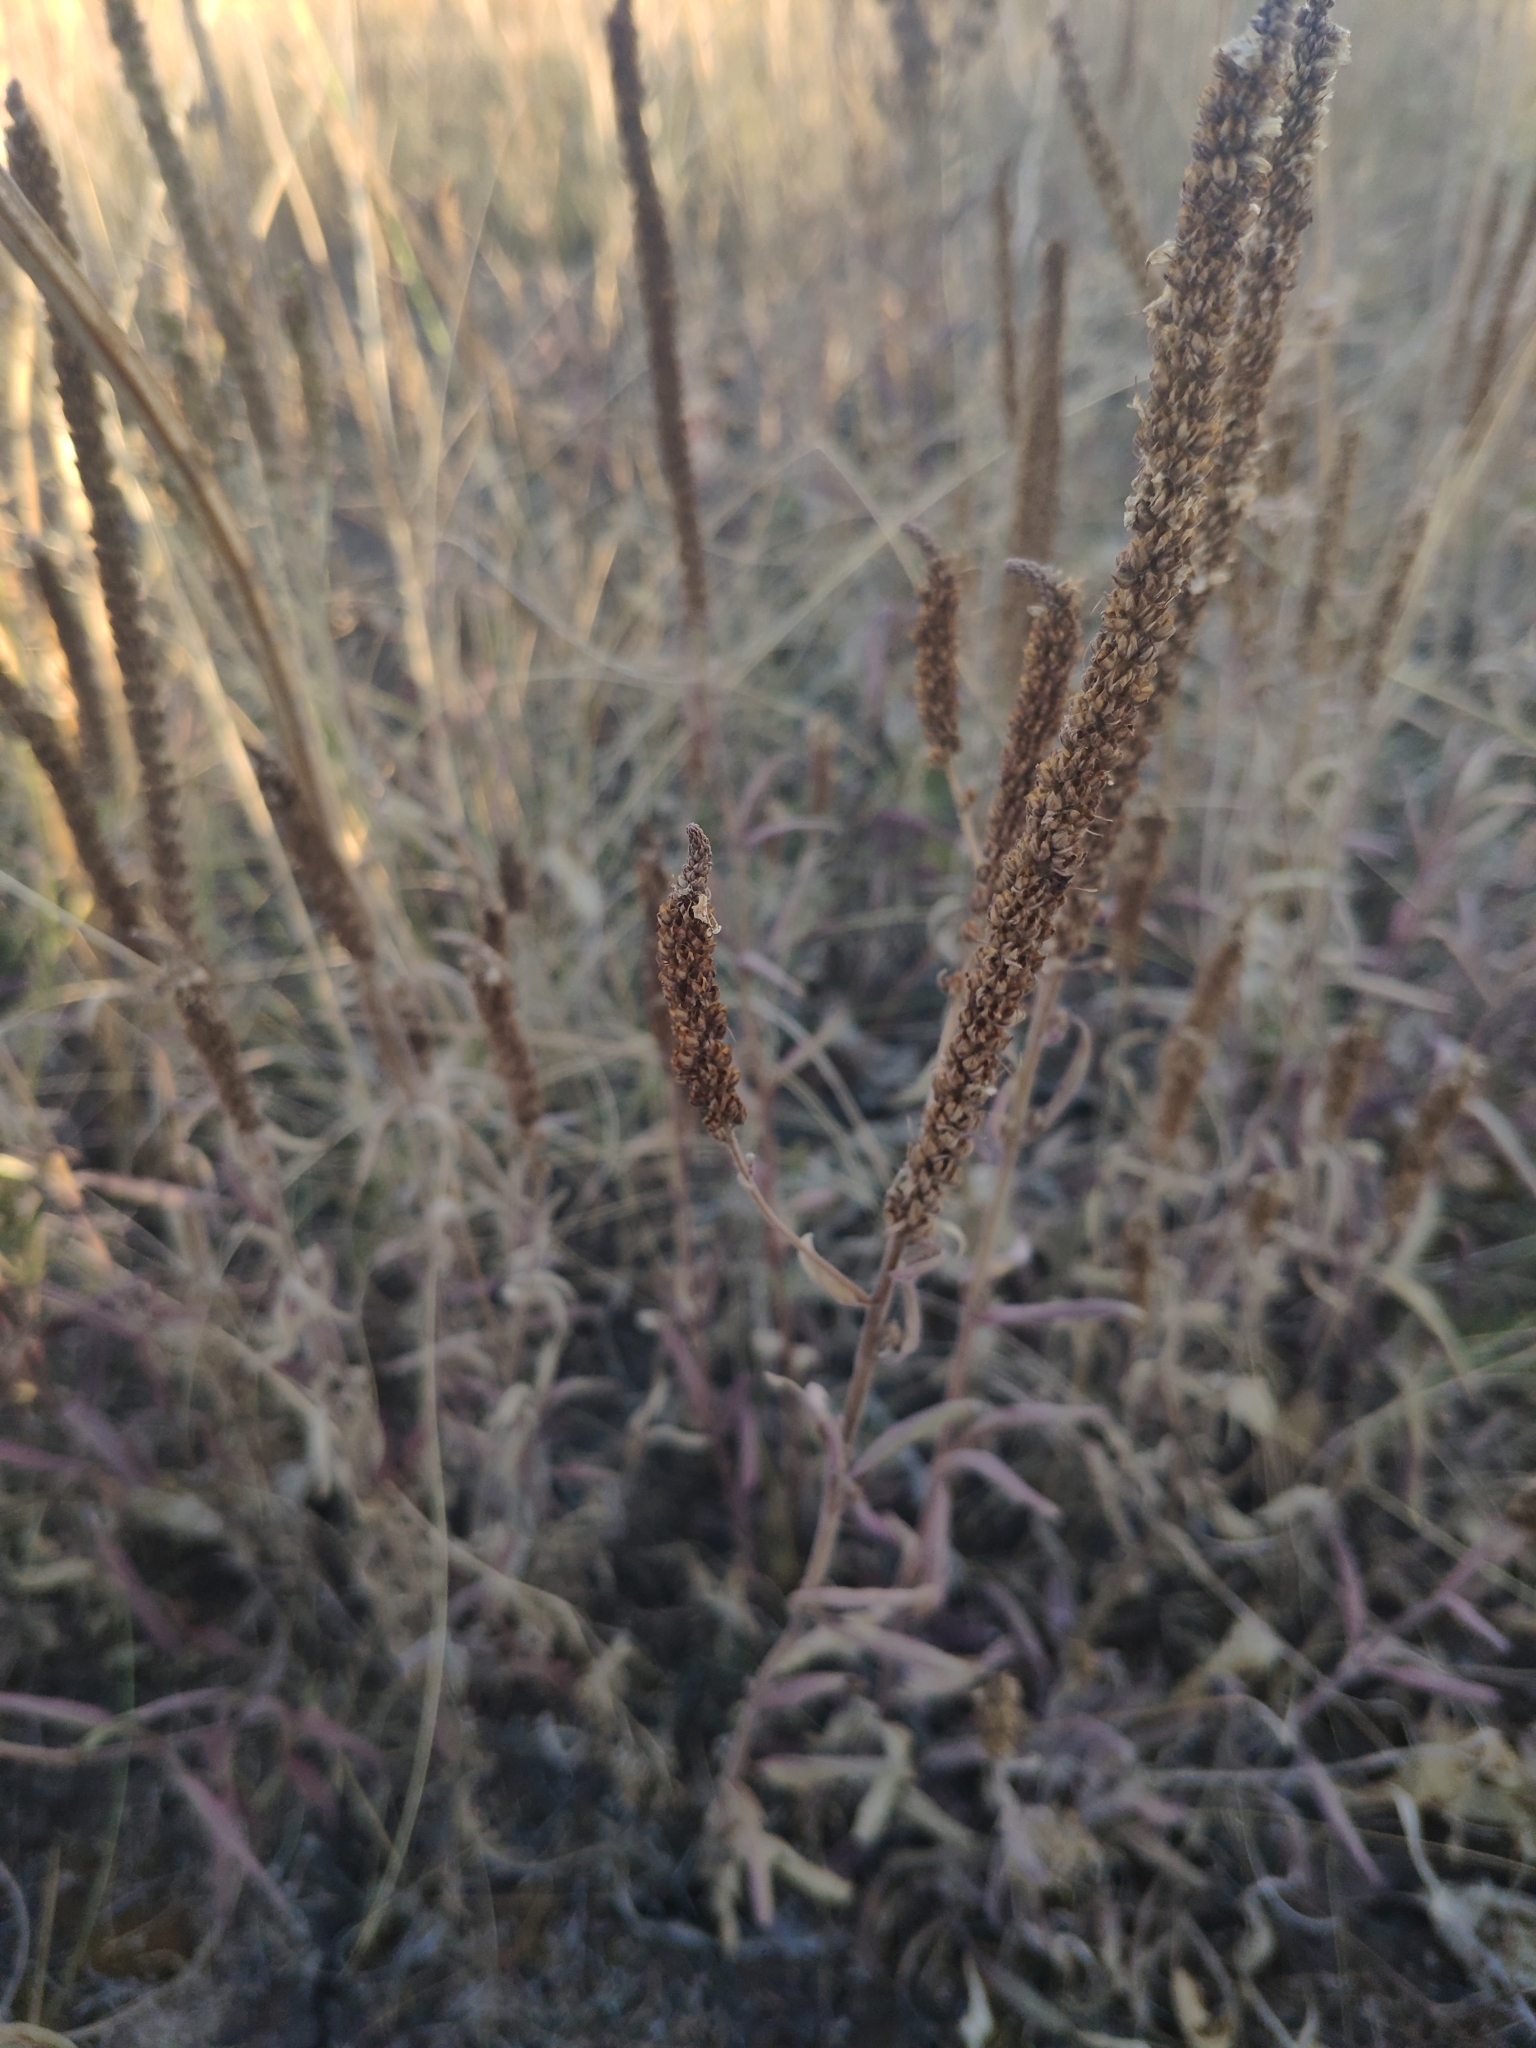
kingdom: Plantae
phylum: Tracheophyta
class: Magnoliopsida
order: Lamiales
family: Plantaginaceae
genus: Veronica
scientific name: Veronica barrelieri
